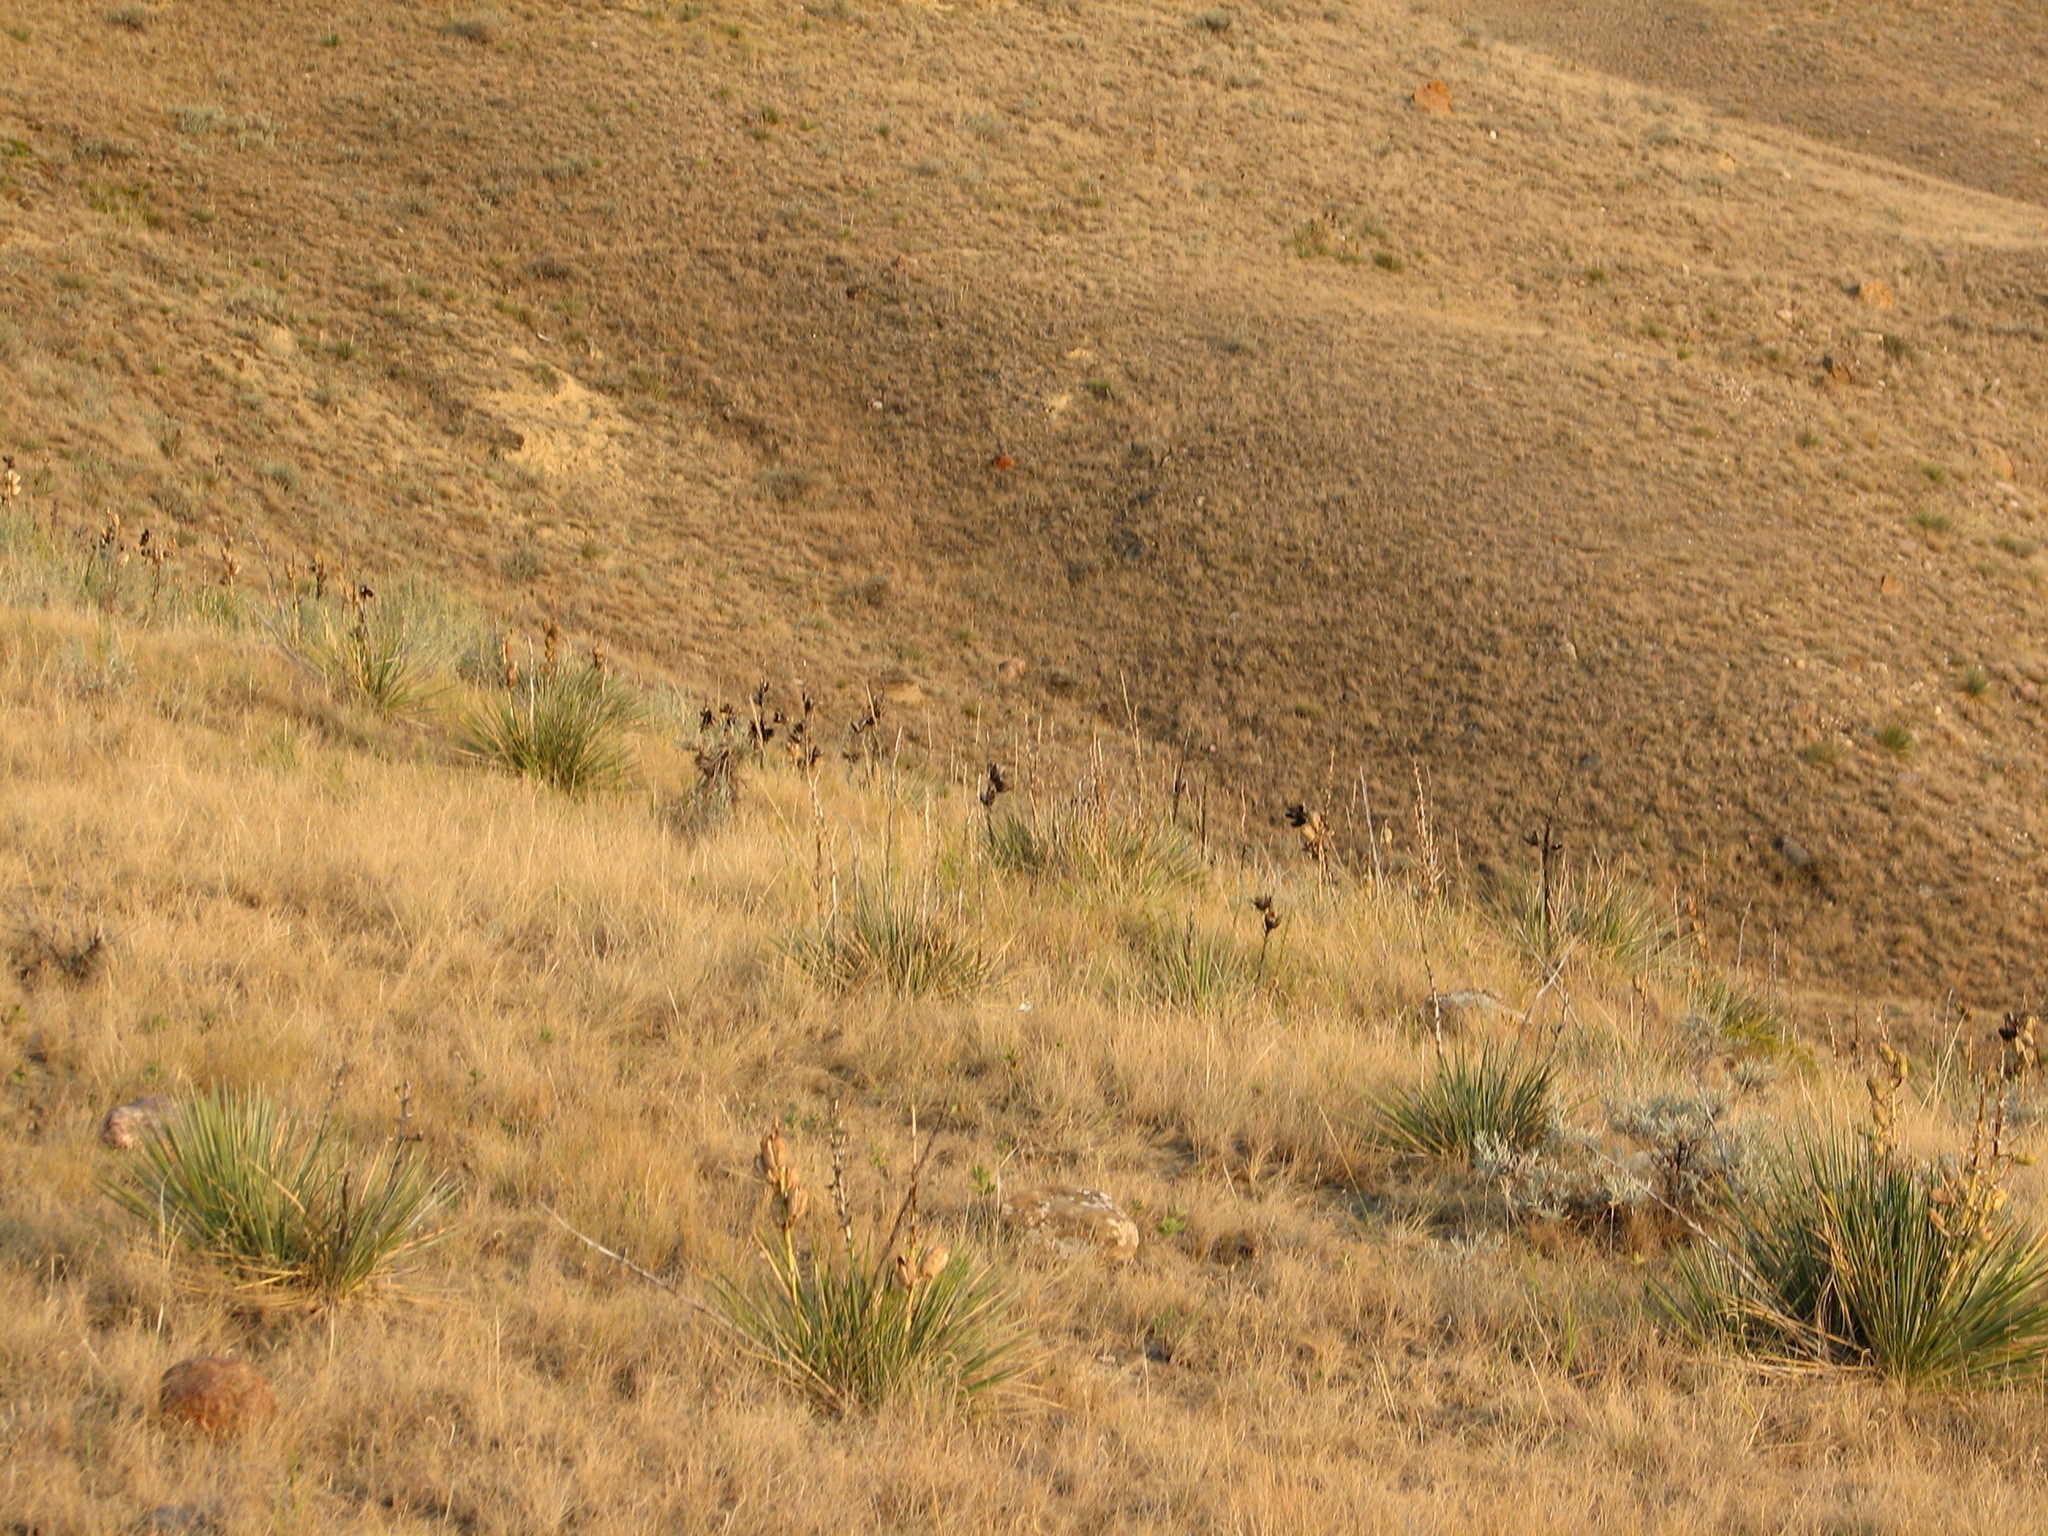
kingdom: Plantae
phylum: Tracheophyta
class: Liliopsida
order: Asparagales
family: Asparagaceae
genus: Yucca
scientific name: Yucca glauca
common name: Great plains yucca
